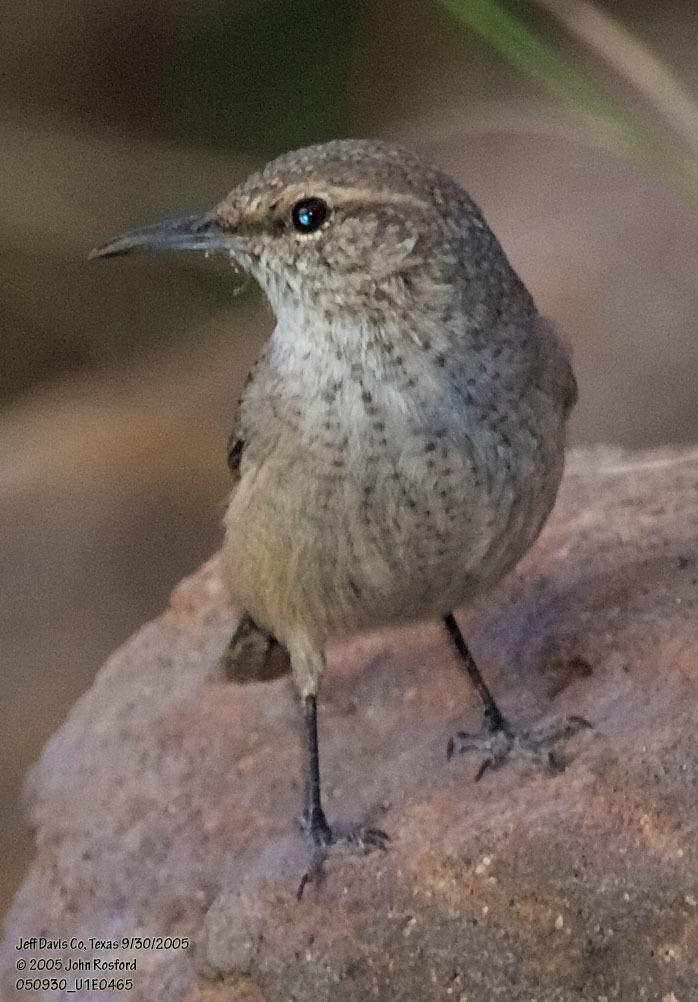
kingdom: Animalia
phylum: Chordata
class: Aves
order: Passeriformes
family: Troglodytidae
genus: Salpinctes
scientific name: Salpinctes obsoletus
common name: Rock wren
